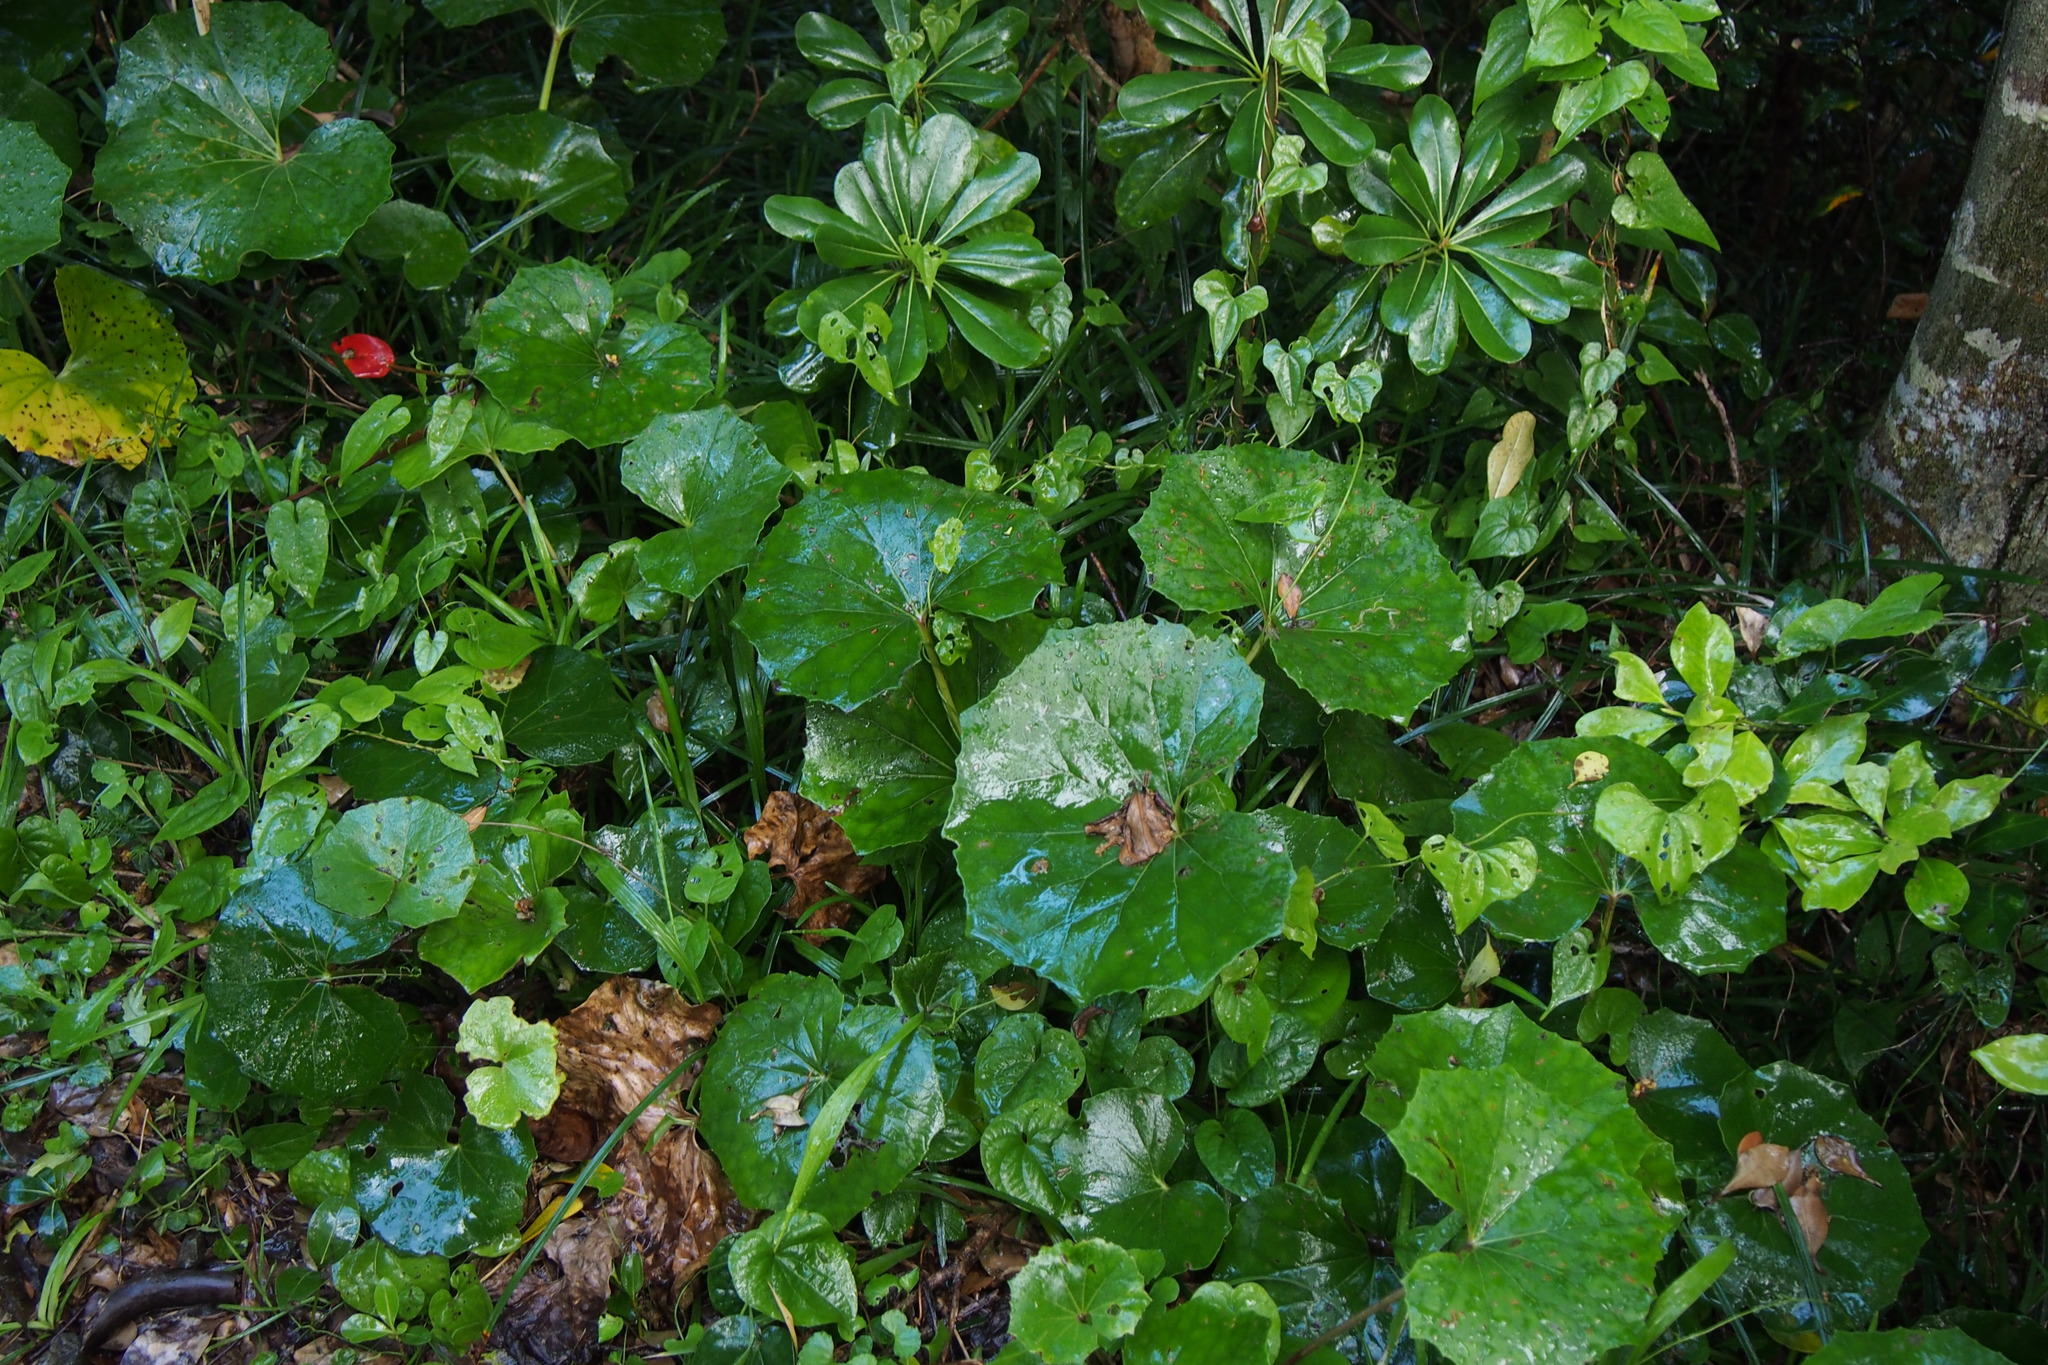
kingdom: Plantae
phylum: Tracheophyta
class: Magnoliopsida
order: Asterales
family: Asteraceae
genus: Farfugium
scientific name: Farfugium japonicum
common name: Leopardplant
